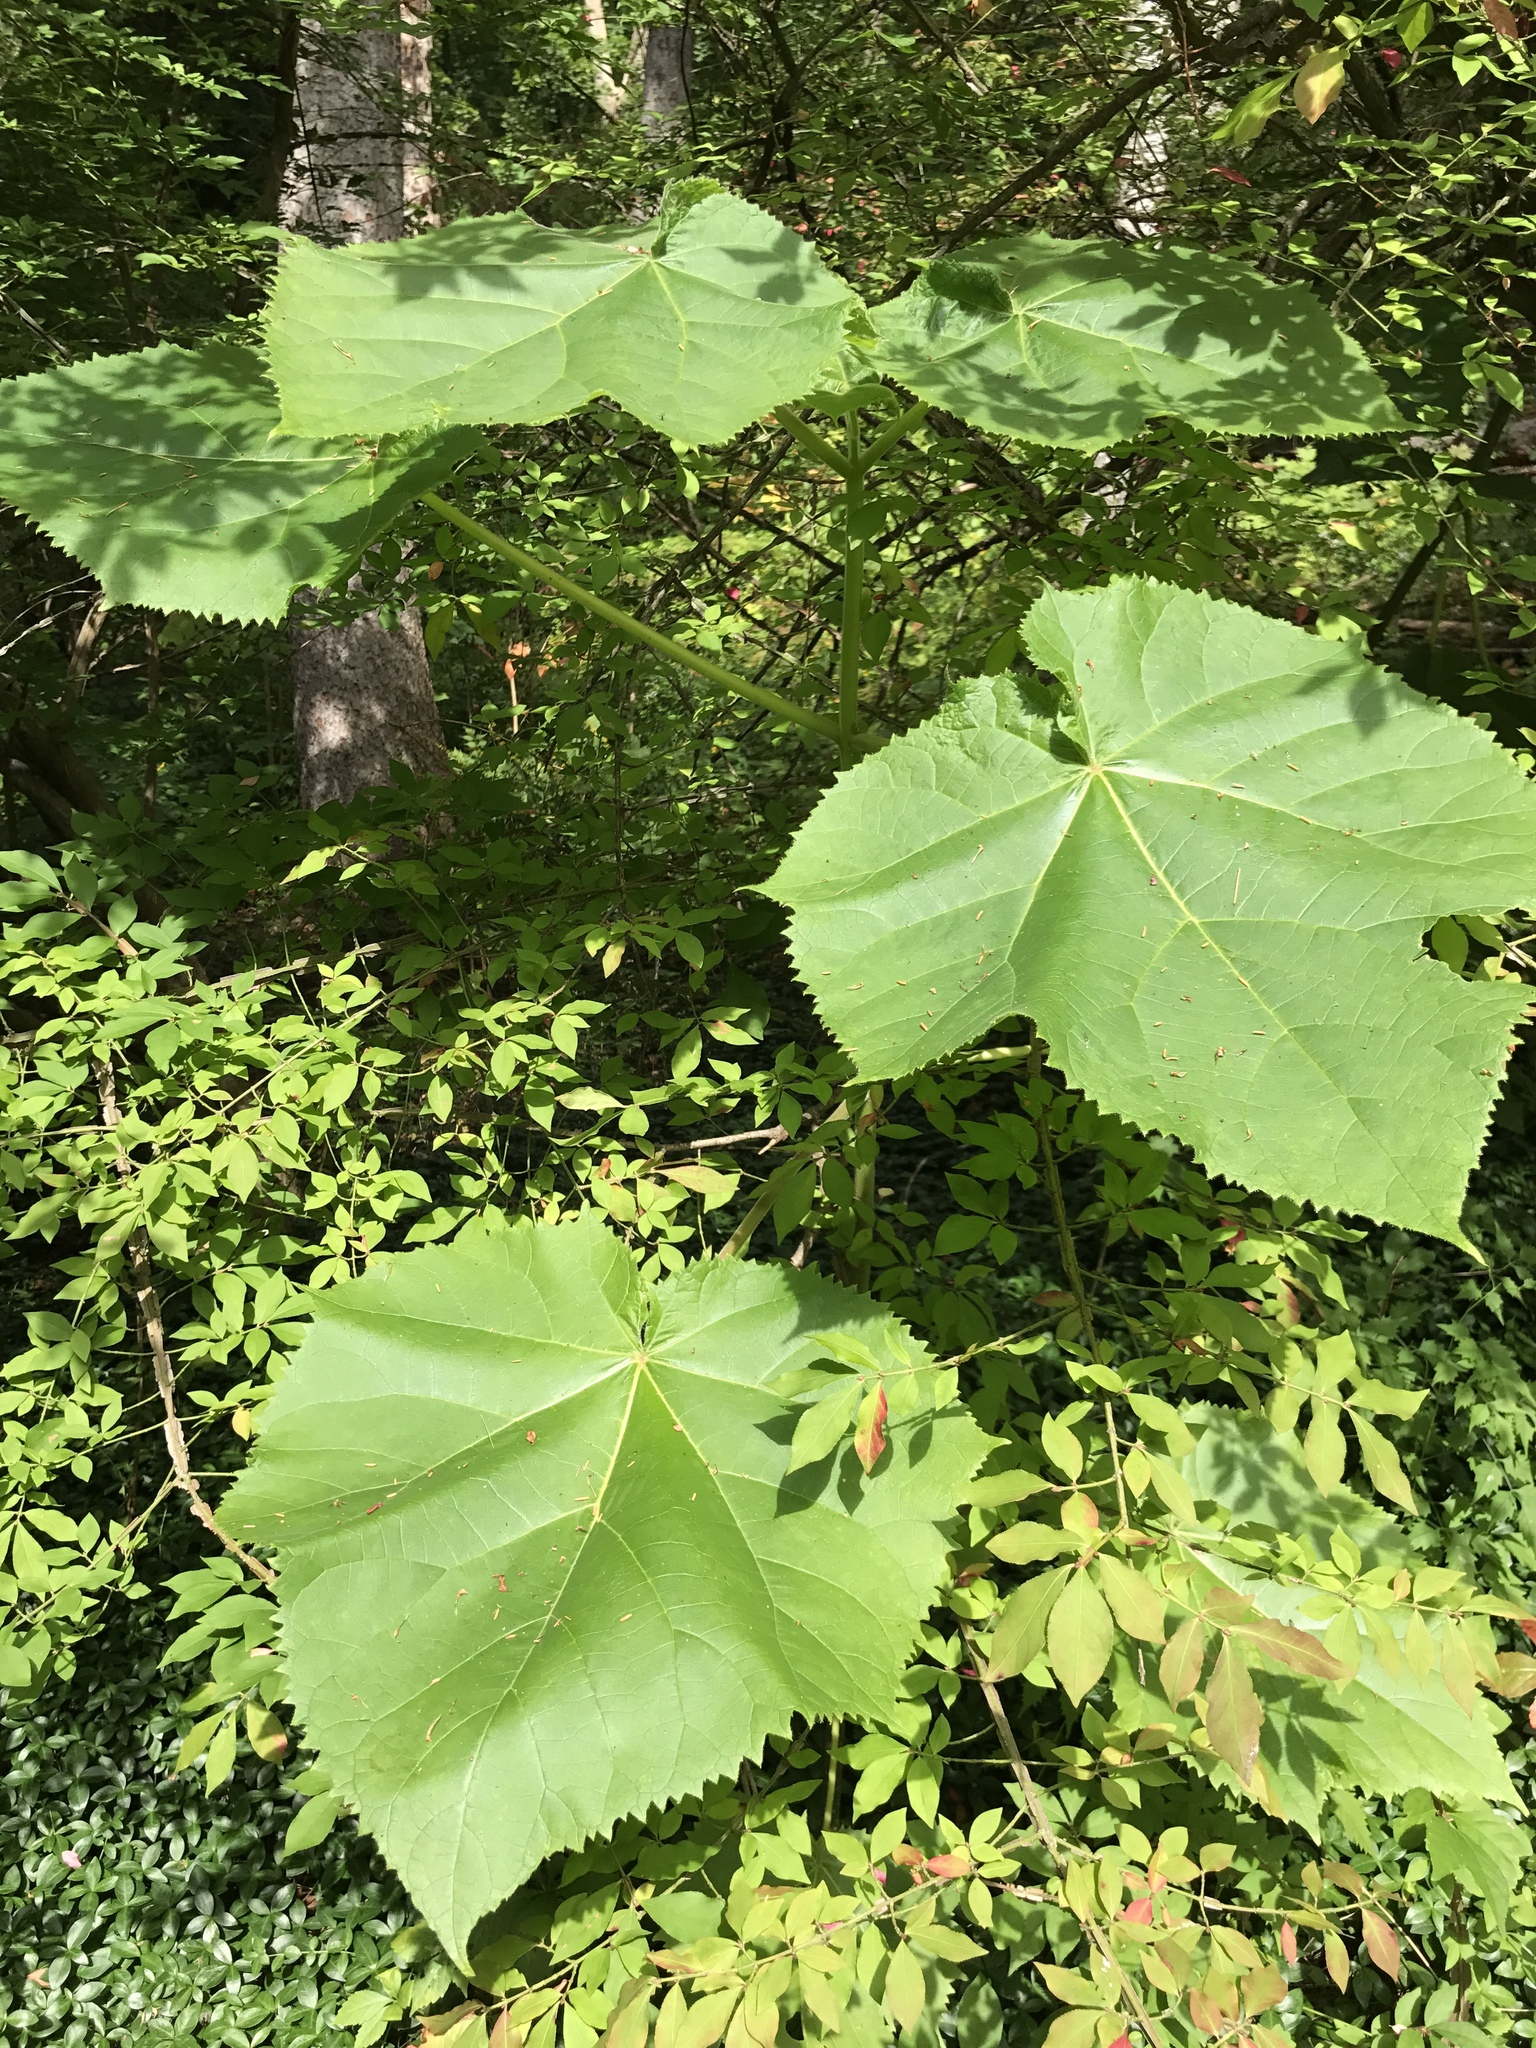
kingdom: Plantae
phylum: Tracheophyta
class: Magnoliopsida
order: Lamiales
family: Paulowniaceae
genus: Paulownia
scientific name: Paulownia tomentosa
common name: Foxglove-tree
